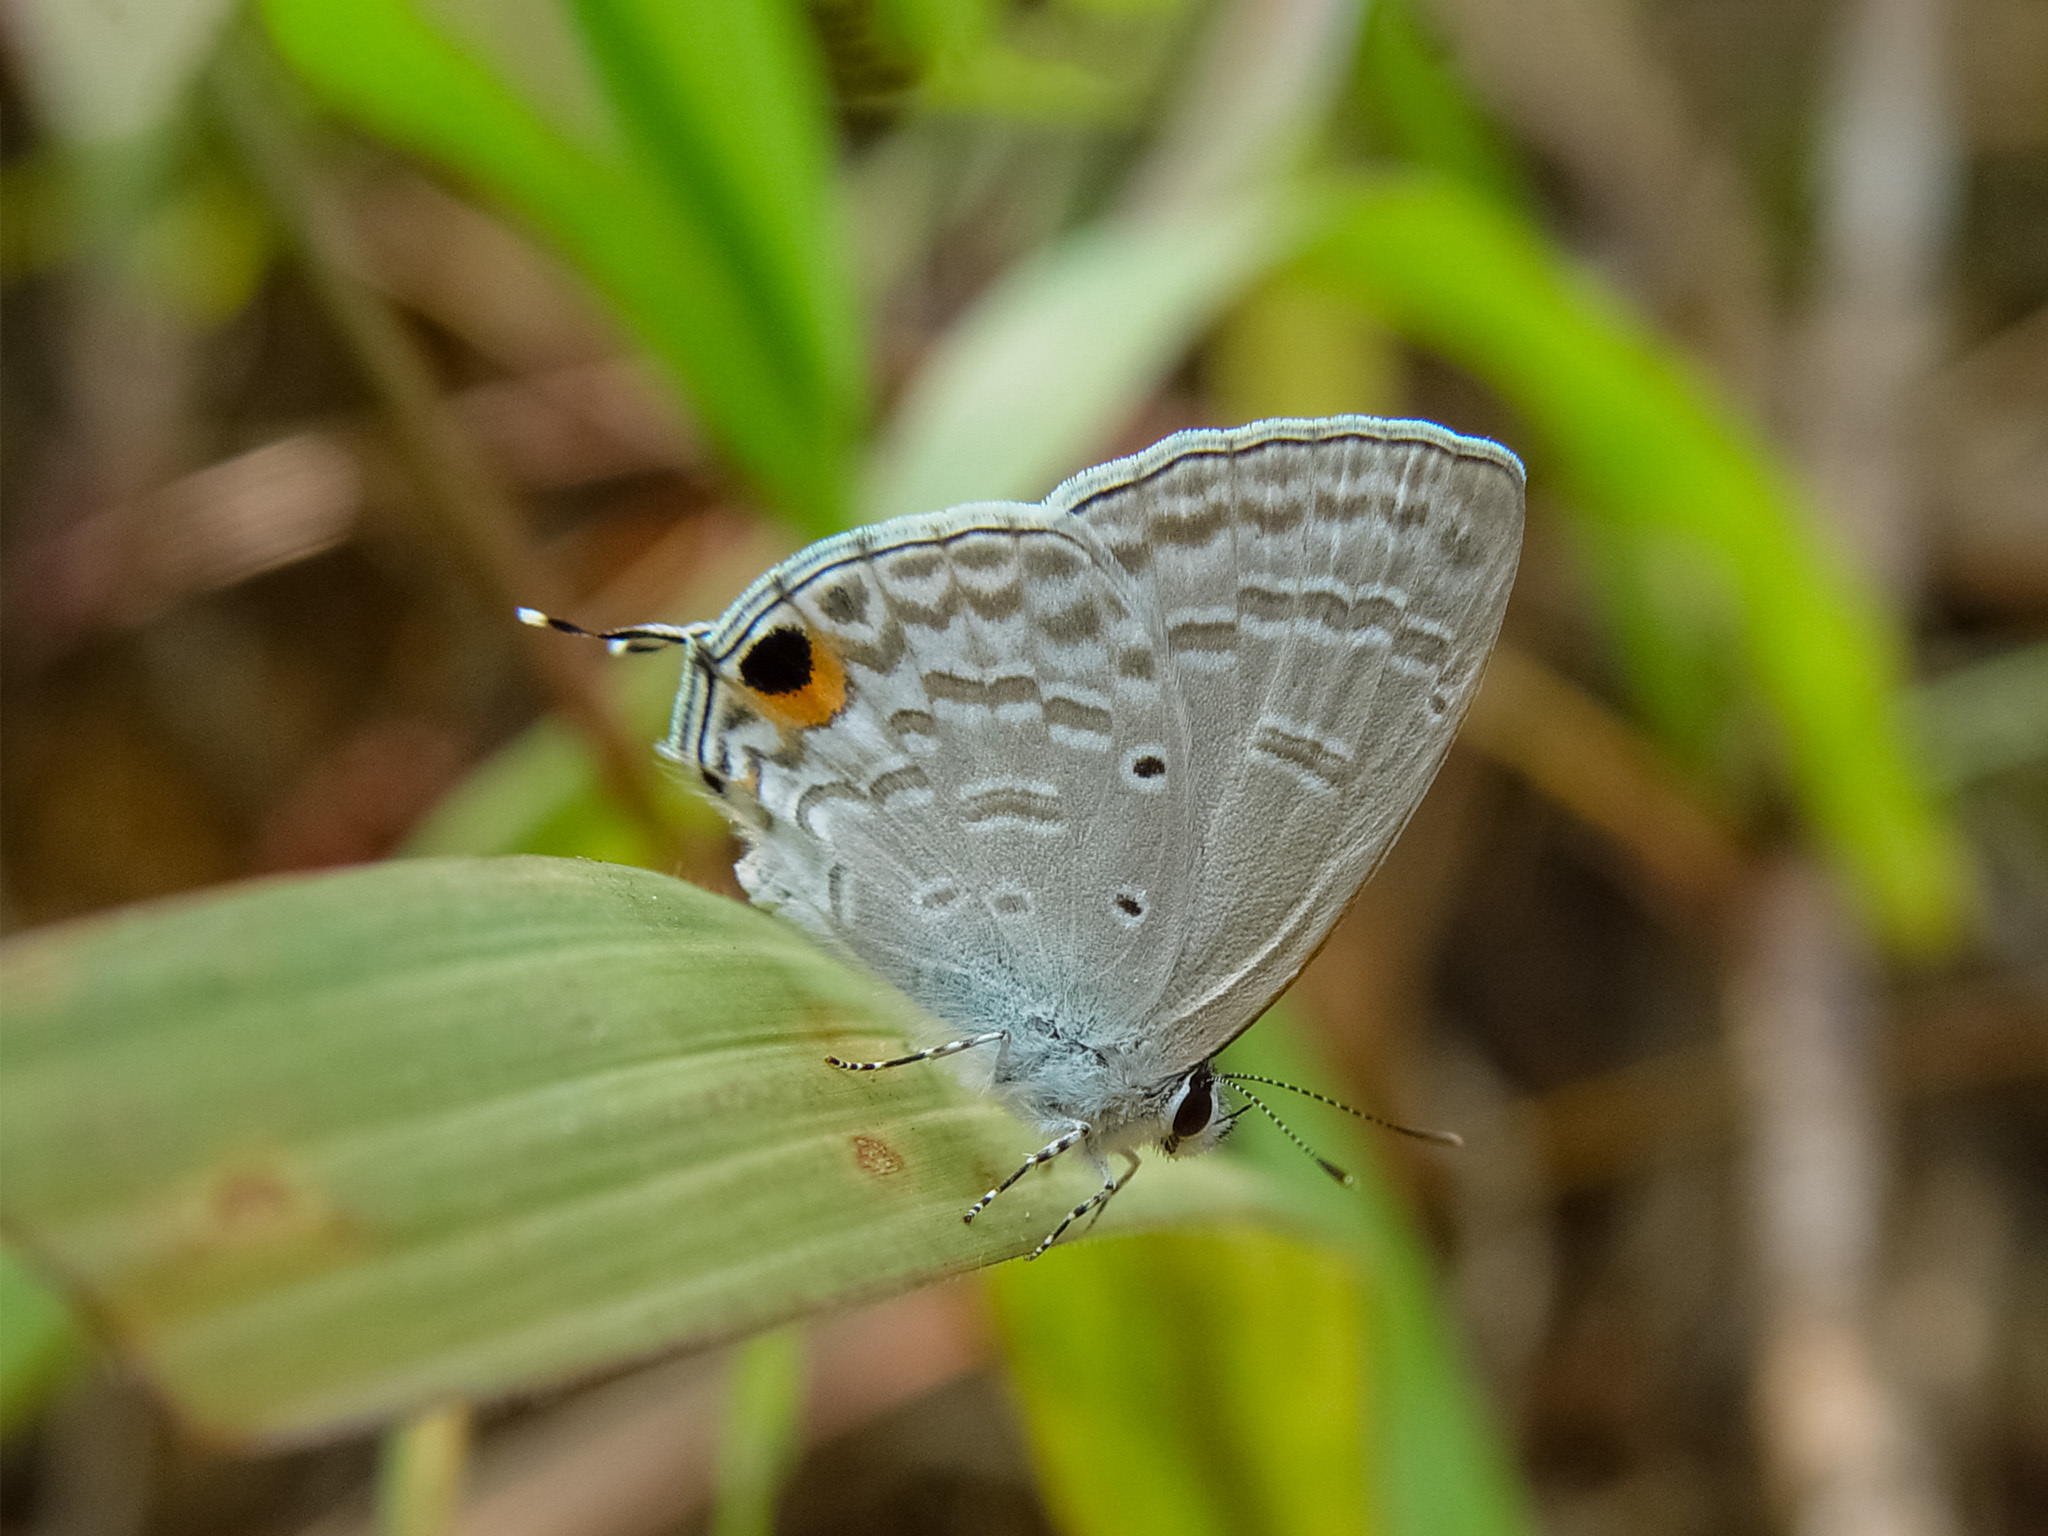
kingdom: Animalia
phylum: Arthropoda
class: Insecta
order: Lepidoptera
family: Lycaenidae
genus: Catochrysops
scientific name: Catochrysops panormus
